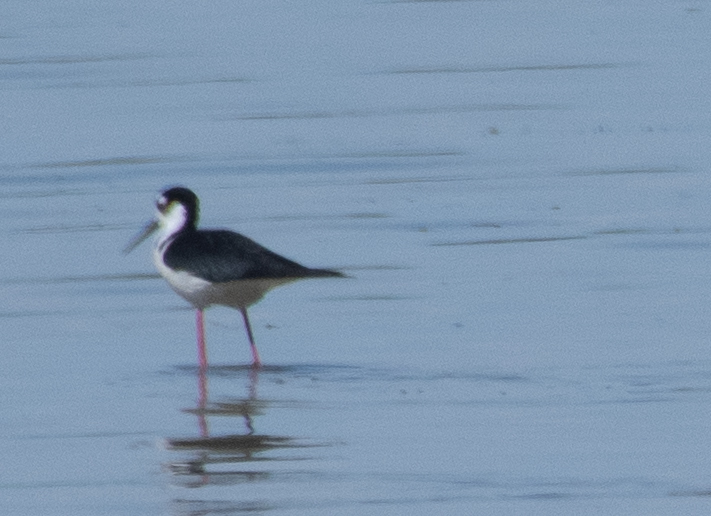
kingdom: Animalia
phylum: Chordata
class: Aves
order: Charadriiformes
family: Recurvirostridae
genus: Himantopus
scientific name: Himantopus mexicanus
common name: Black-necked stilt
